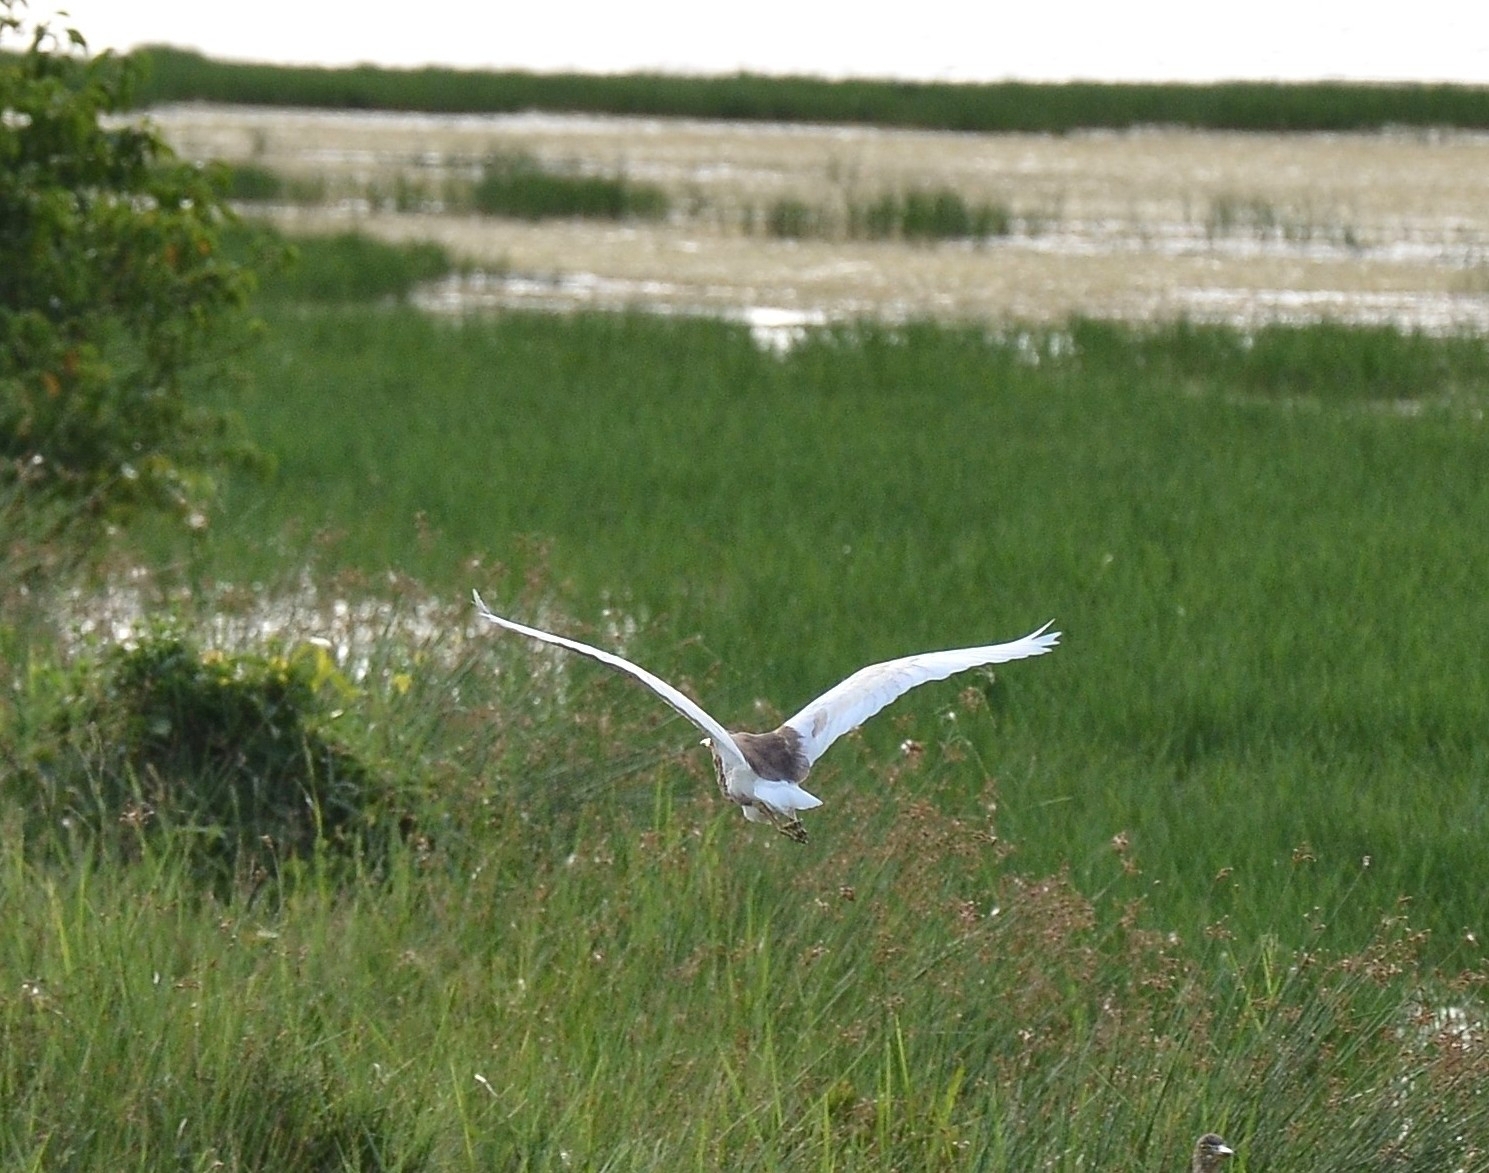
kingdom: Animalia
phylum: Chordata
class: Aves
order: Pelecaniformes
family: Ardeidae
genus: Ardeola
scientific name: Ardeola grayii
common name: Indian pond heron
